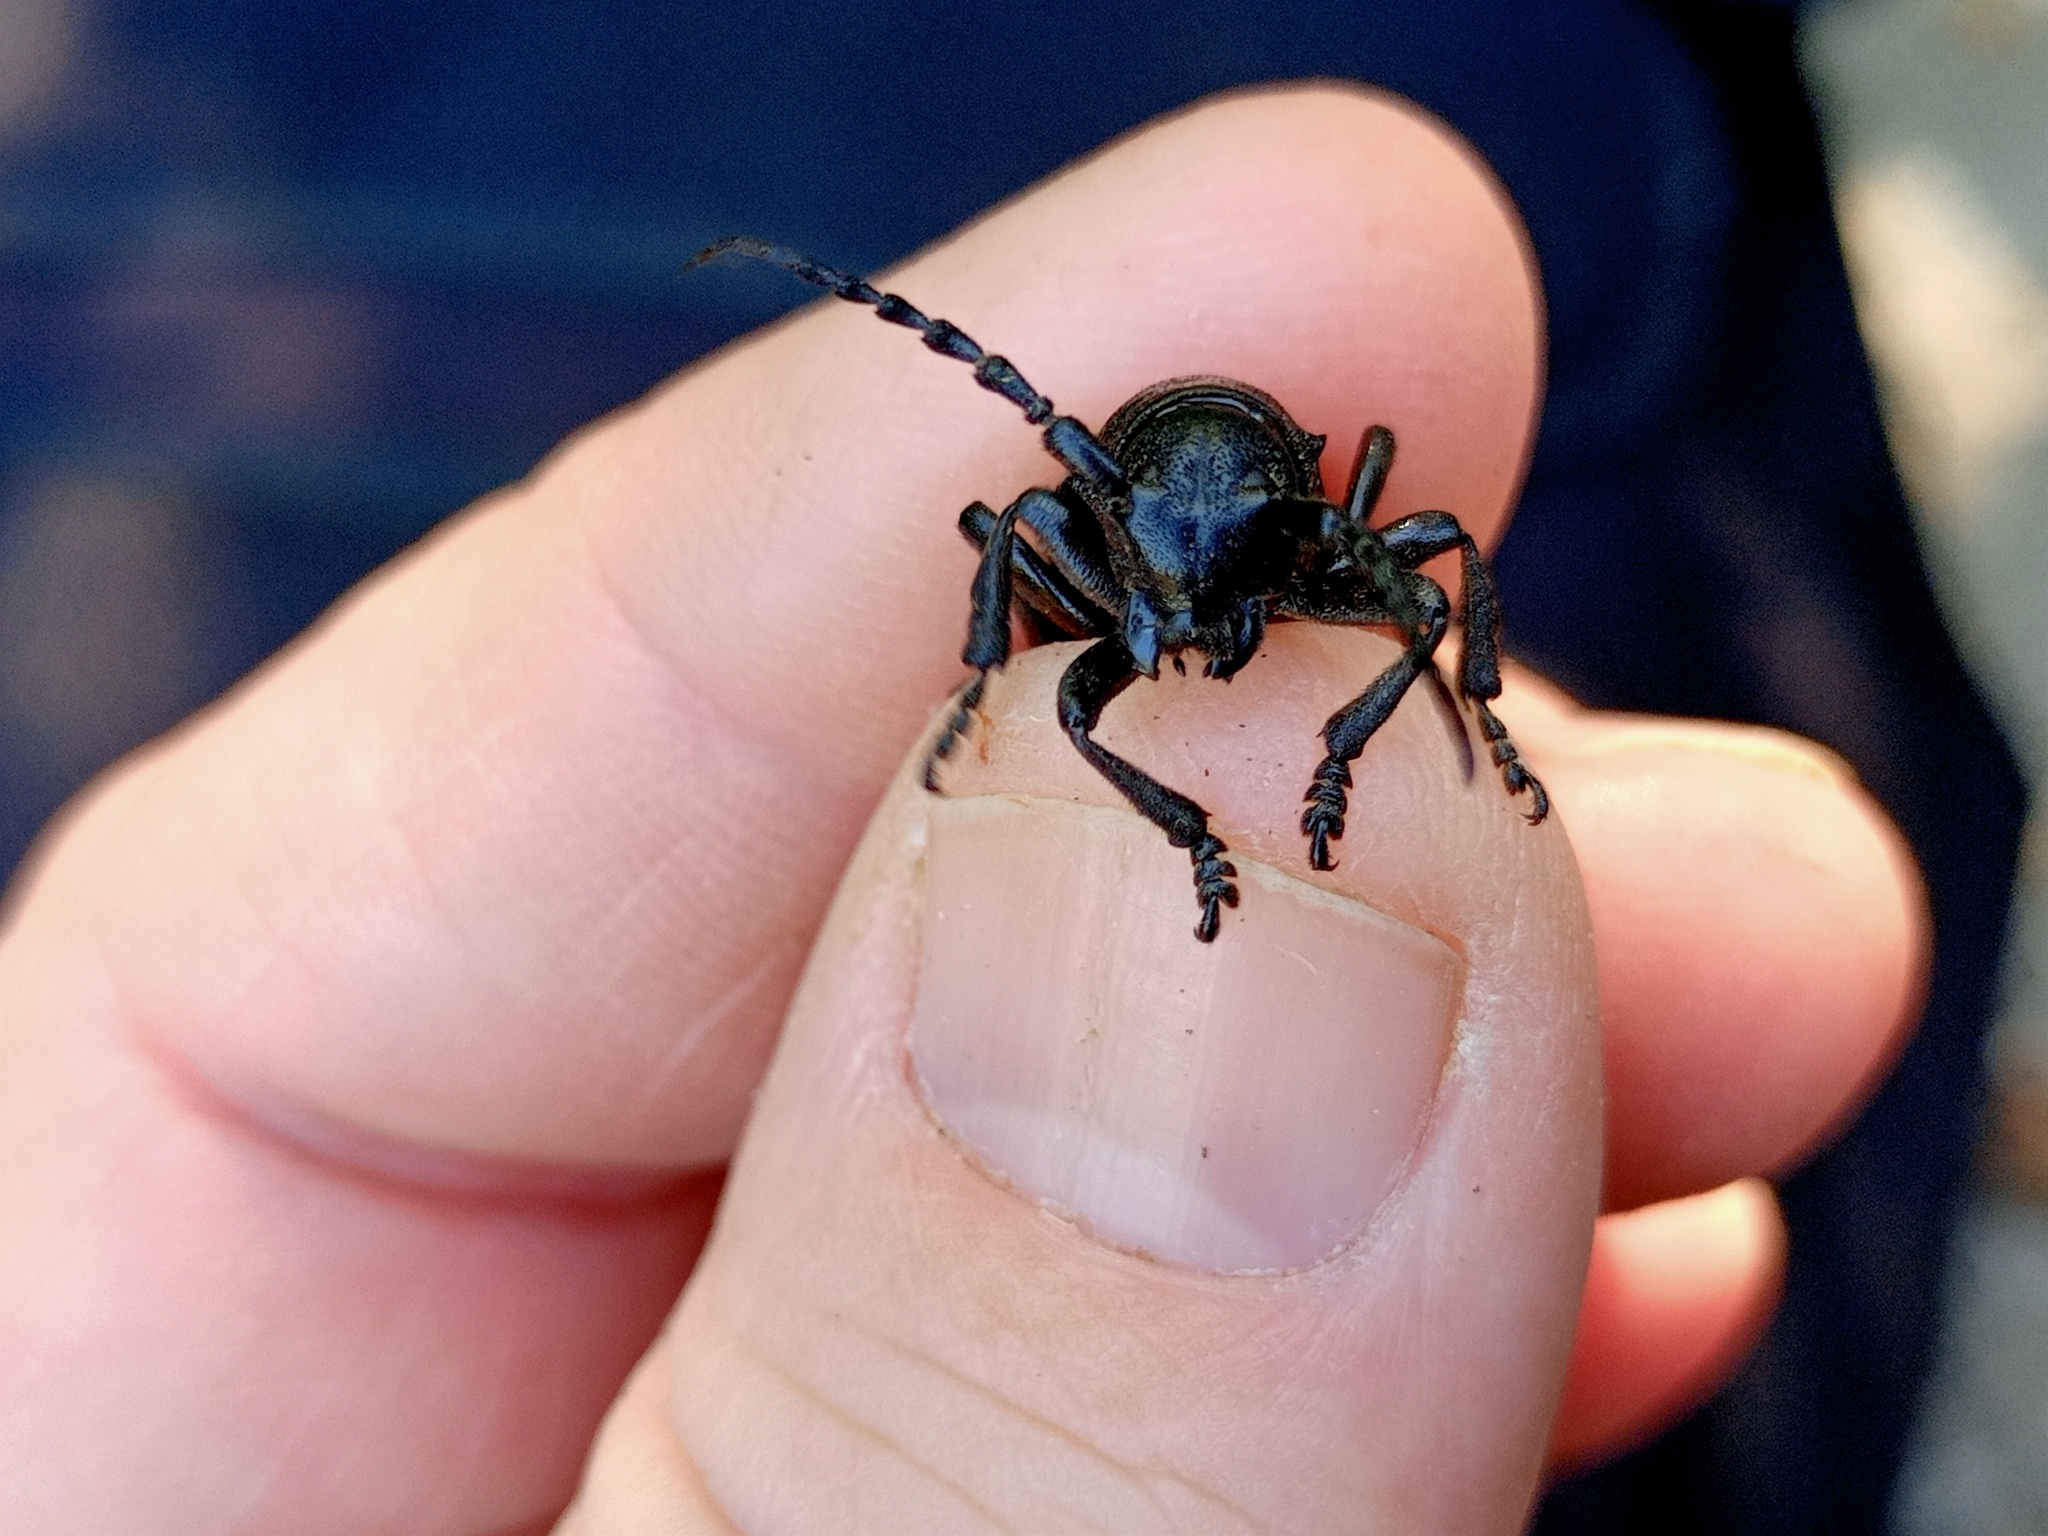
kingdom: Animalia
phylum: Arthropoda
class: Insecta
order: Coleoptera
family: Cerambycidae
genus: Dorcadion
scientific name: Dorcadion aethiops
